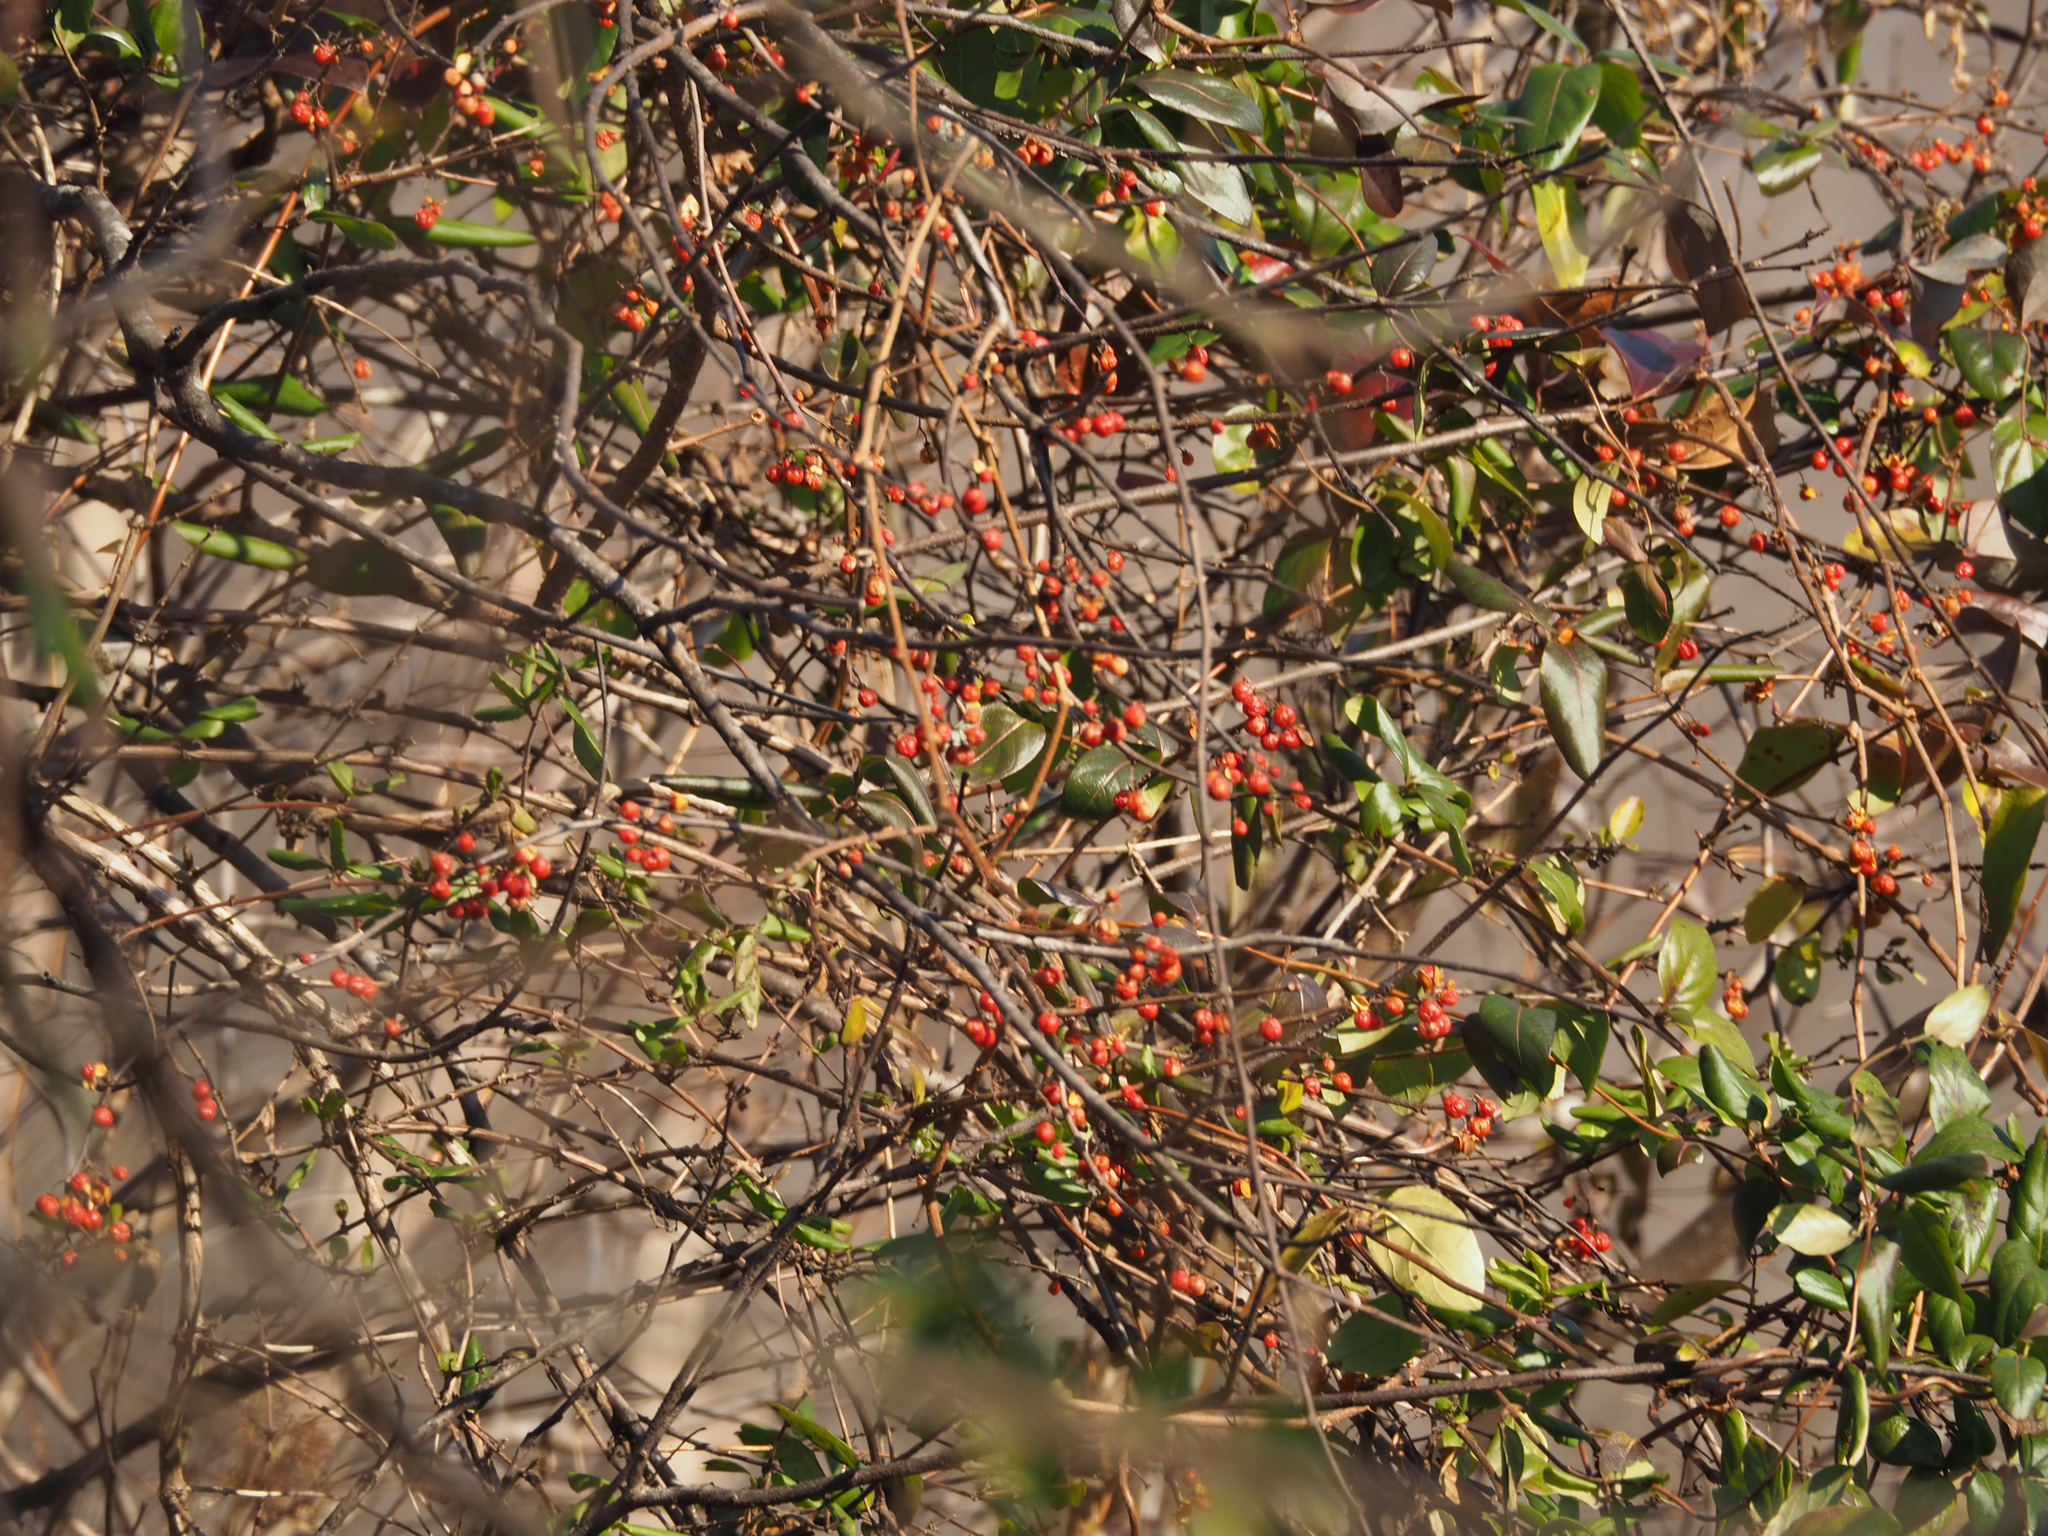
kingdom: Plantae
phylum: Tracheophyta
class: Magnoliopsida
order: Celastrales
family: Celastraceae
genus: Celastrus
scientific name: Celastrus orbiculatus
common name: Oriental bittersweet
